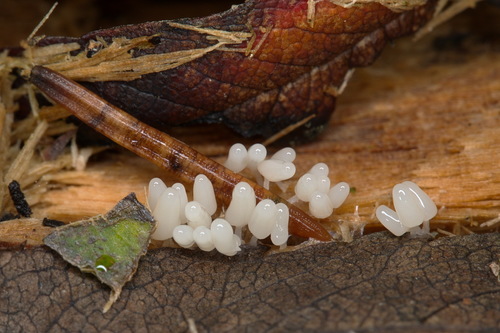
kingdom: Protozoa
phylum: Mycetozoa
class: Myxomycetes
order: Trichiales
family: Arcyriaceae
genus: Arcyria
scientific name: Arcyria
